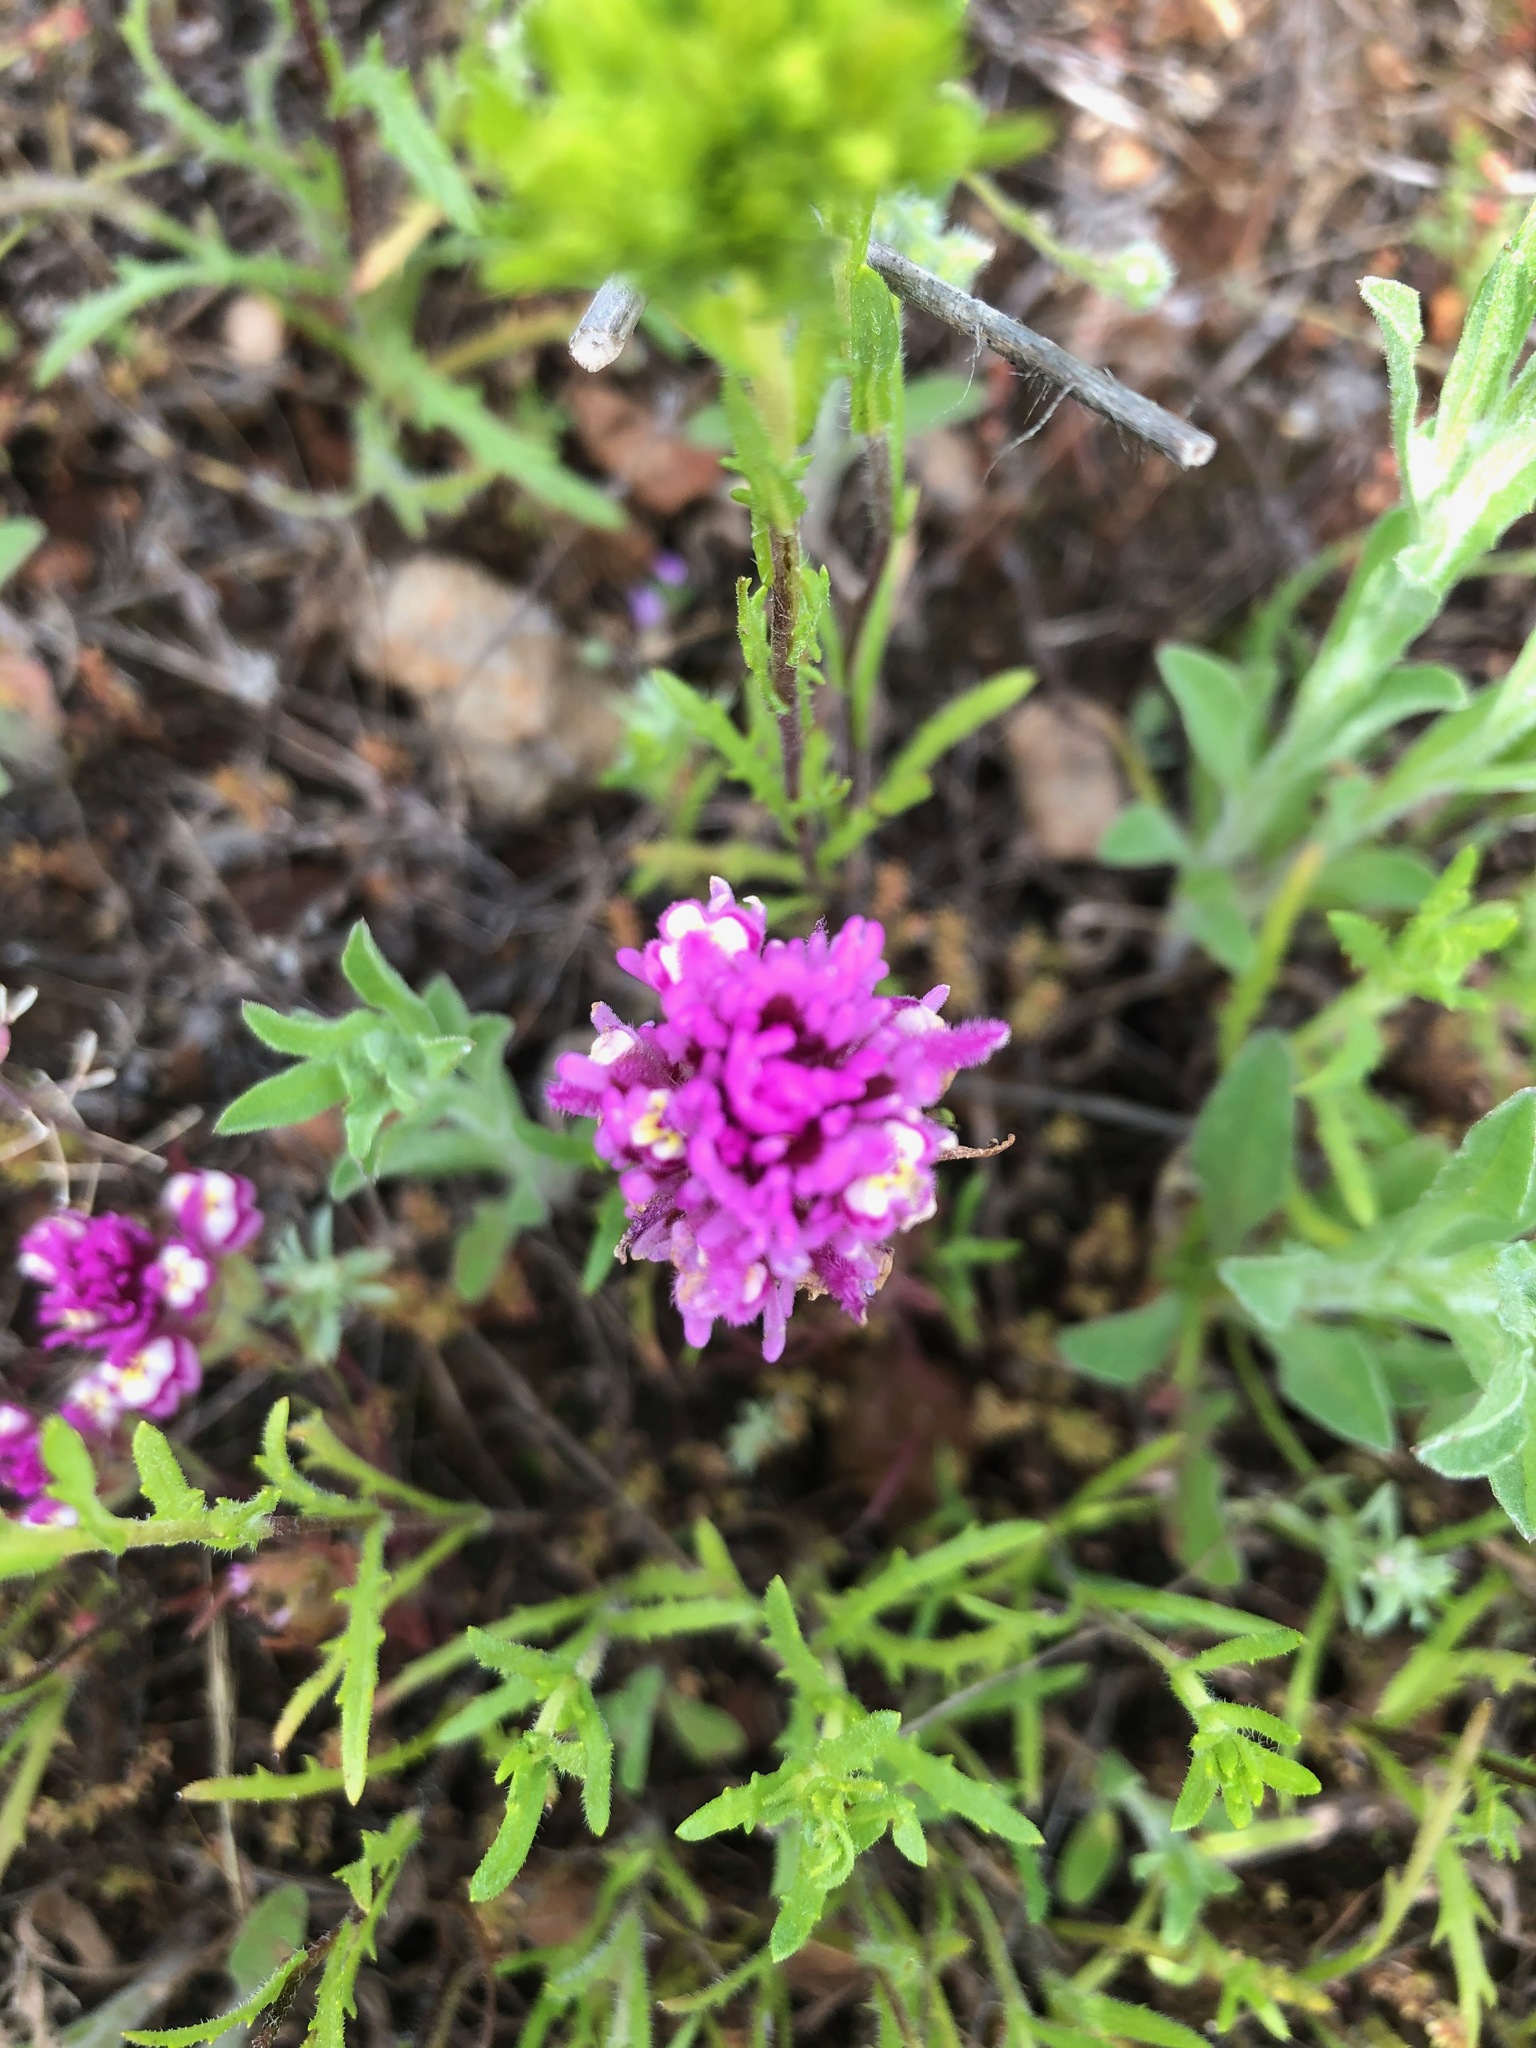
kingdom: Plantae
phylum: Tracheophyta
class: Magnoliopsida
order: Lamiales
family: Orobanchaceae
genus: Castilleja
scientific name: Castilleja exserta
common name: Purple owl-clover
